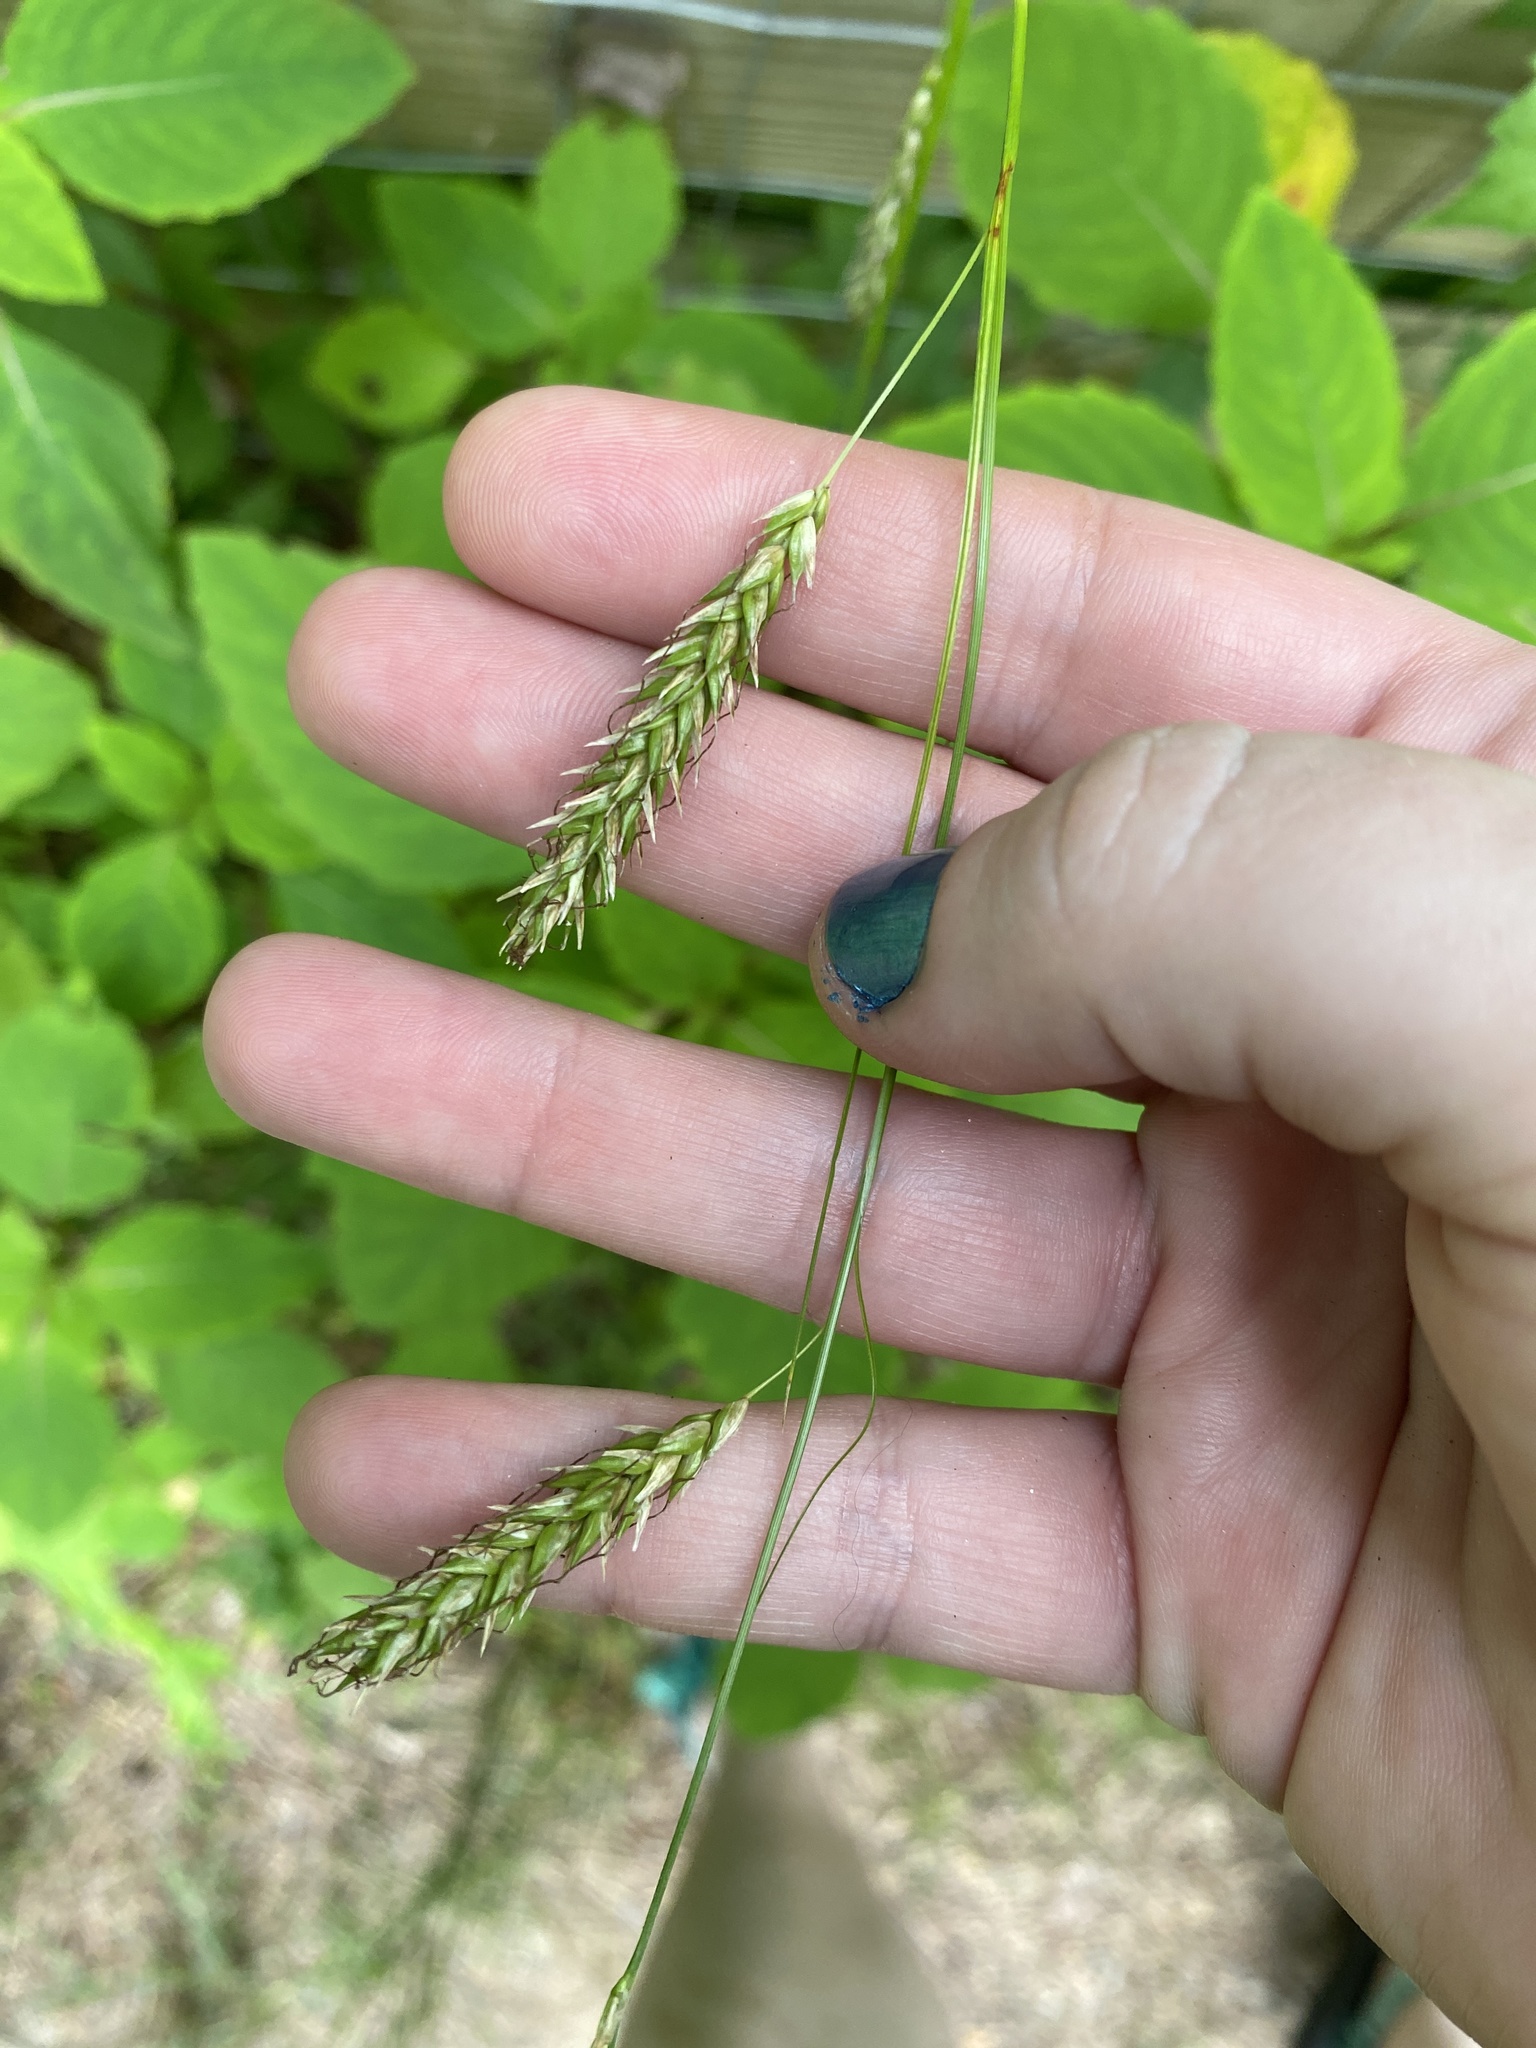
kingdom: Plantae
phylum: Tracheophyta
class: Liliopsida
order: Poales
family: Cyperaceae
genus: Carex
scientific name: Carex cherokeensis
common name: Cherokee sedge
